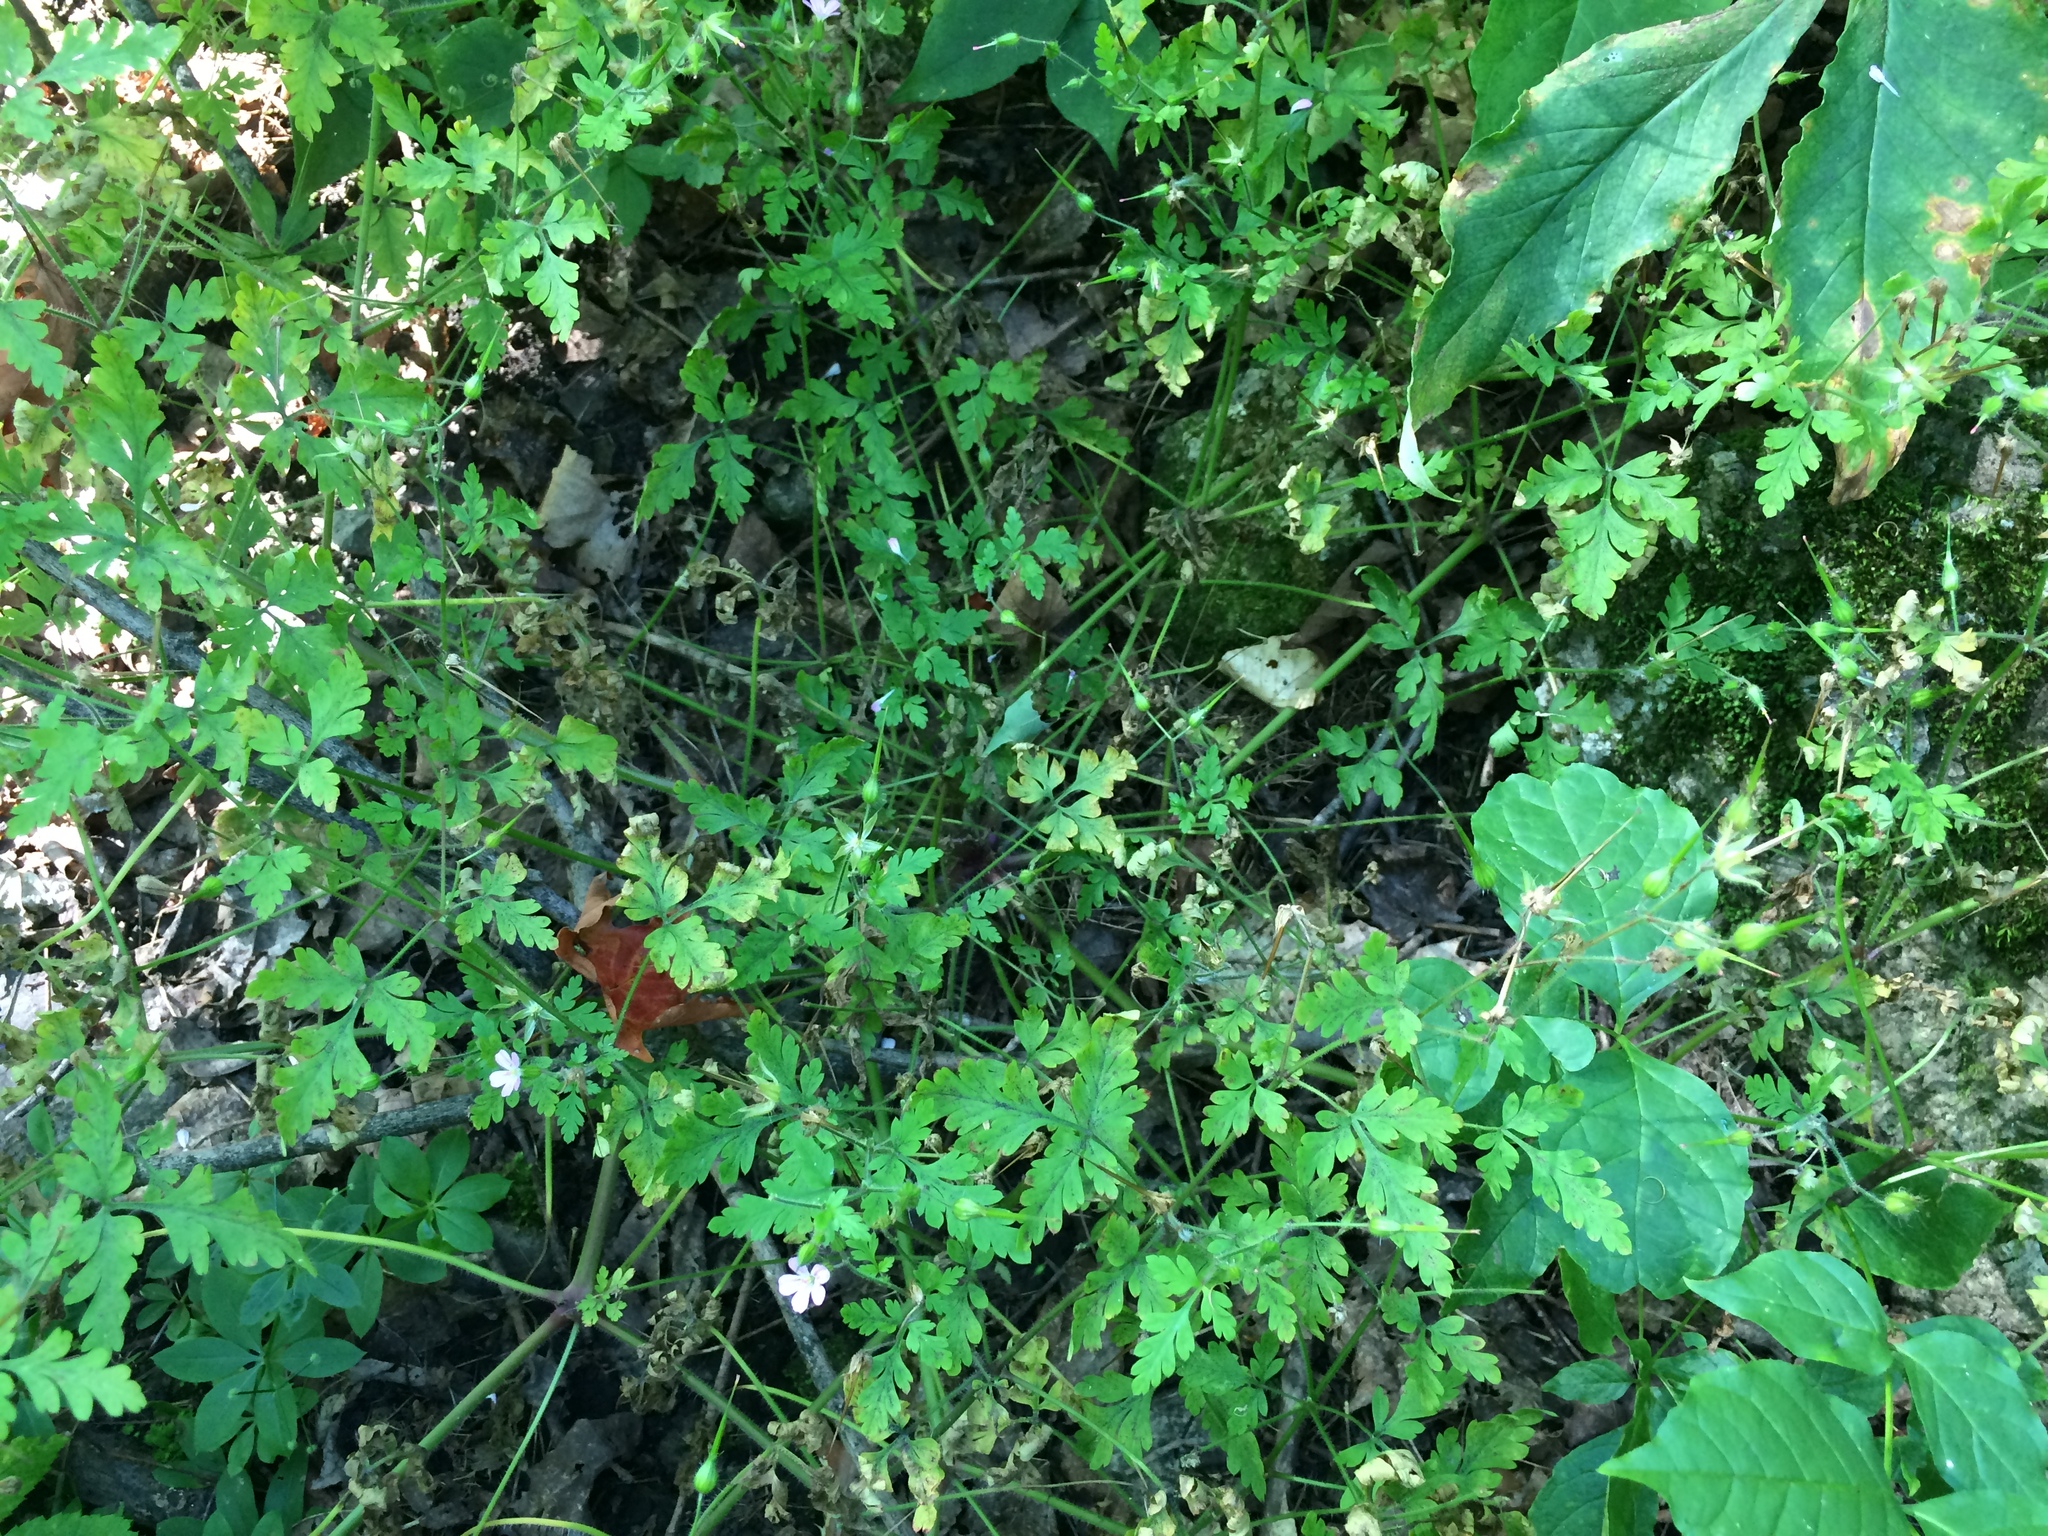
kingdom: Plantae
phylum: Tracheophyta
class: Magnoliopsida
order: Geraniales
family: Geraniaceae
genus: Geranium
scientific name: Geranium robertianum
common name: Herb-robert
